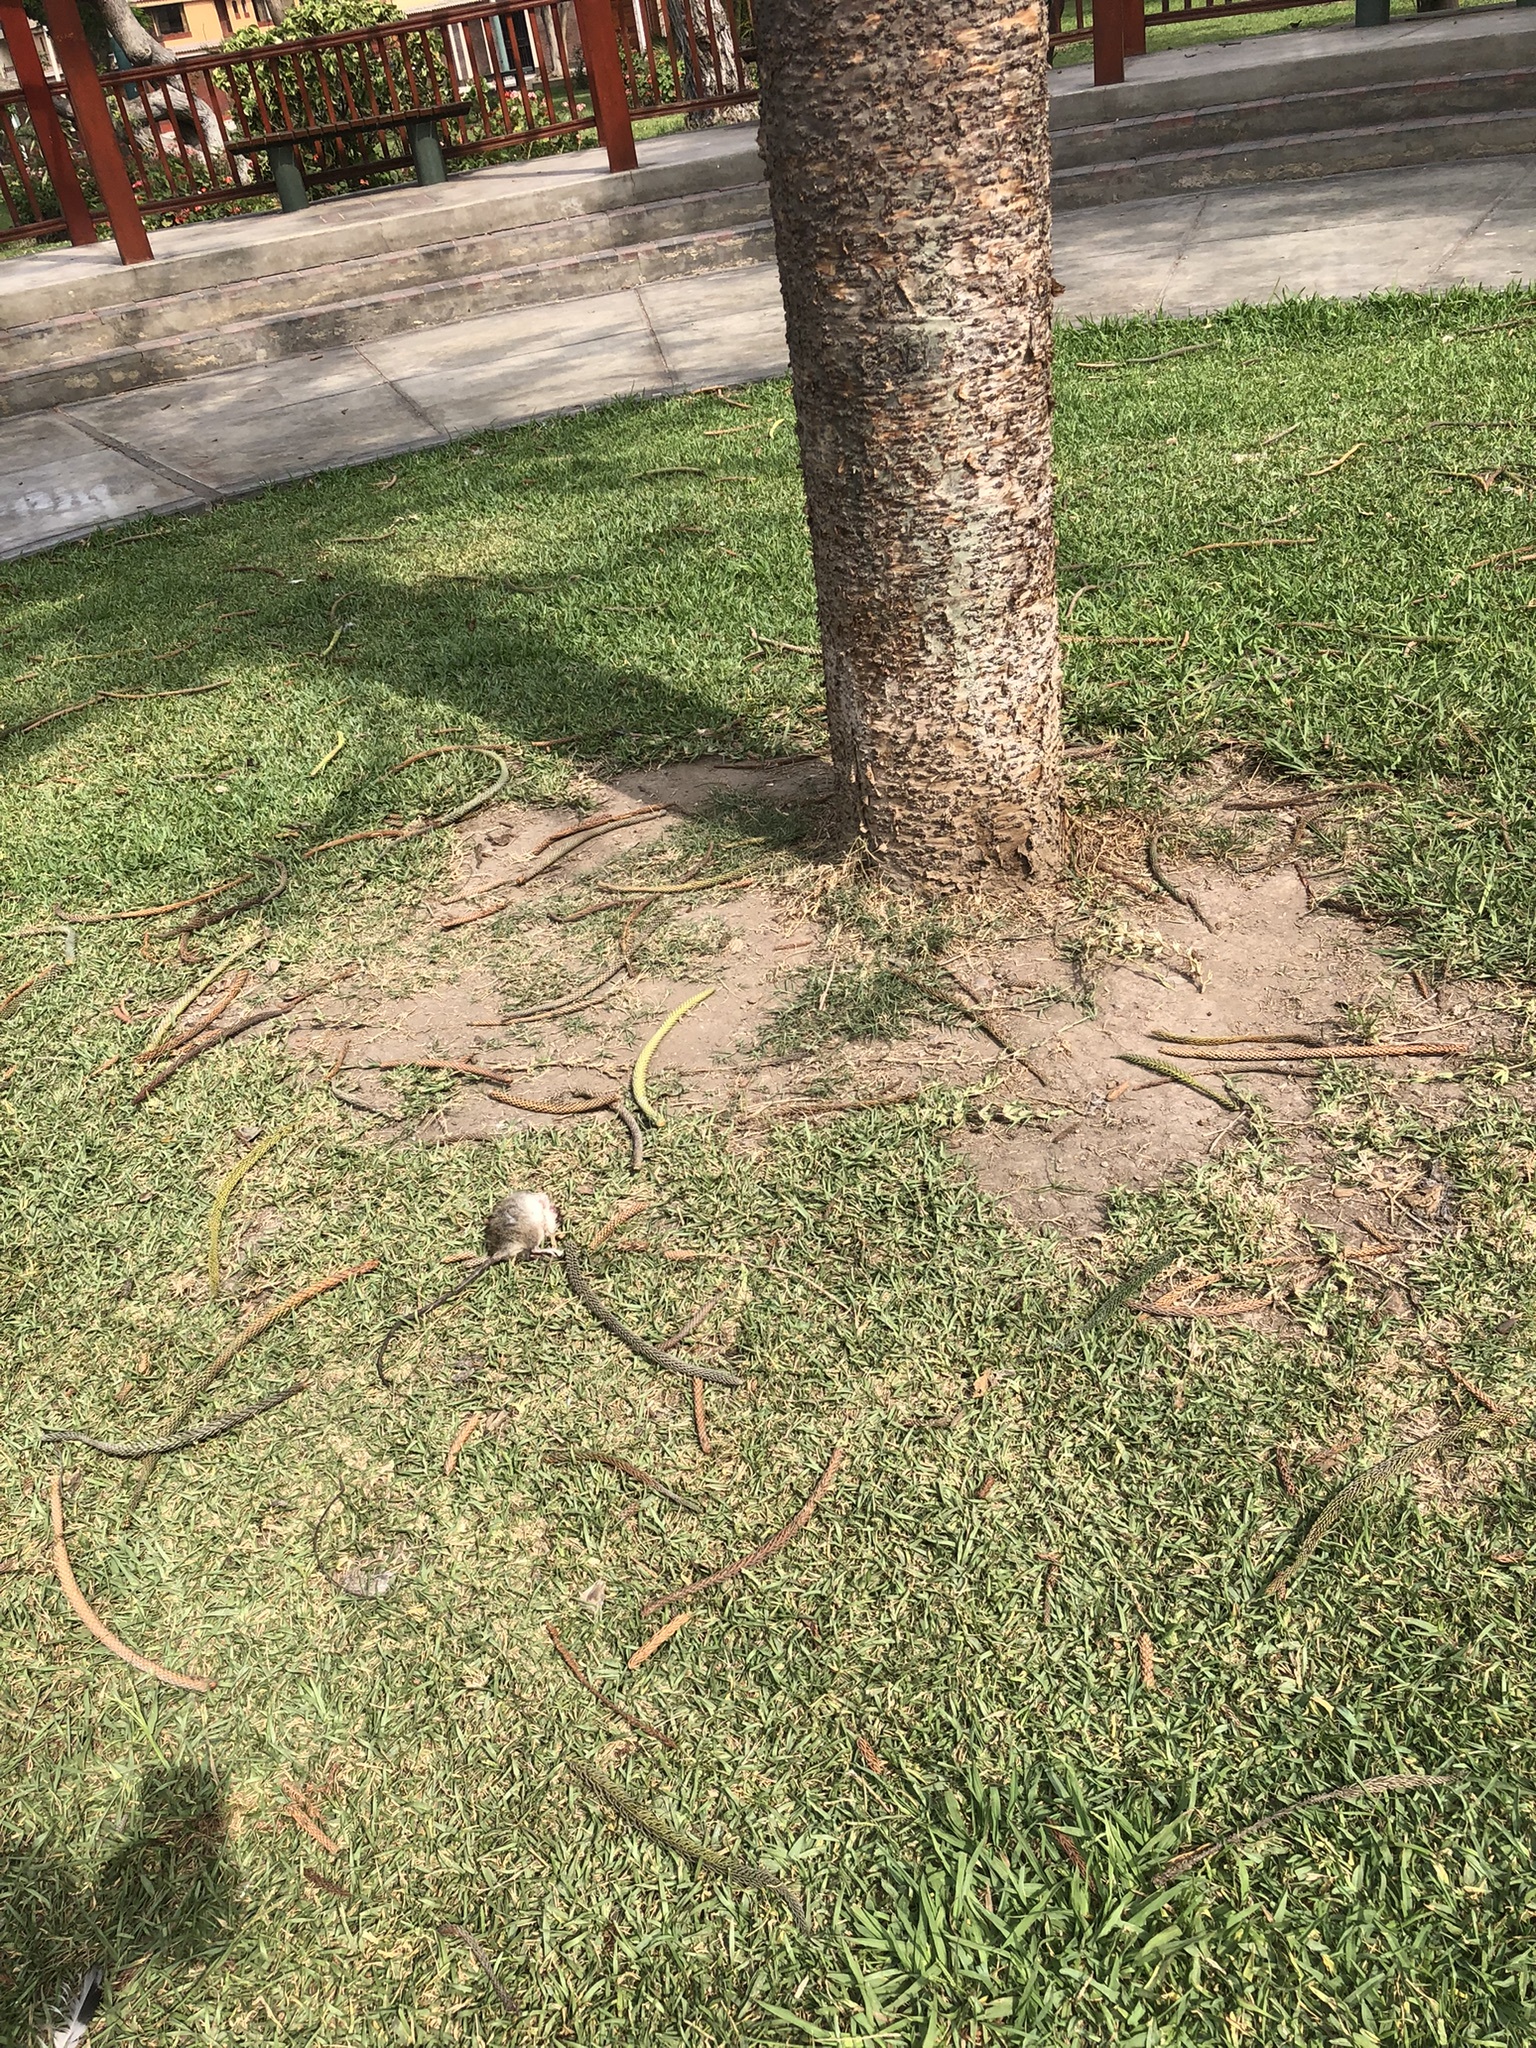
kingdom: Animalia
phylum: Chordata
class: Mammalia
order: Rodentia
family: Muridae
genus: Rattus
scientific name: Rattus rattus
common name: Black rat
